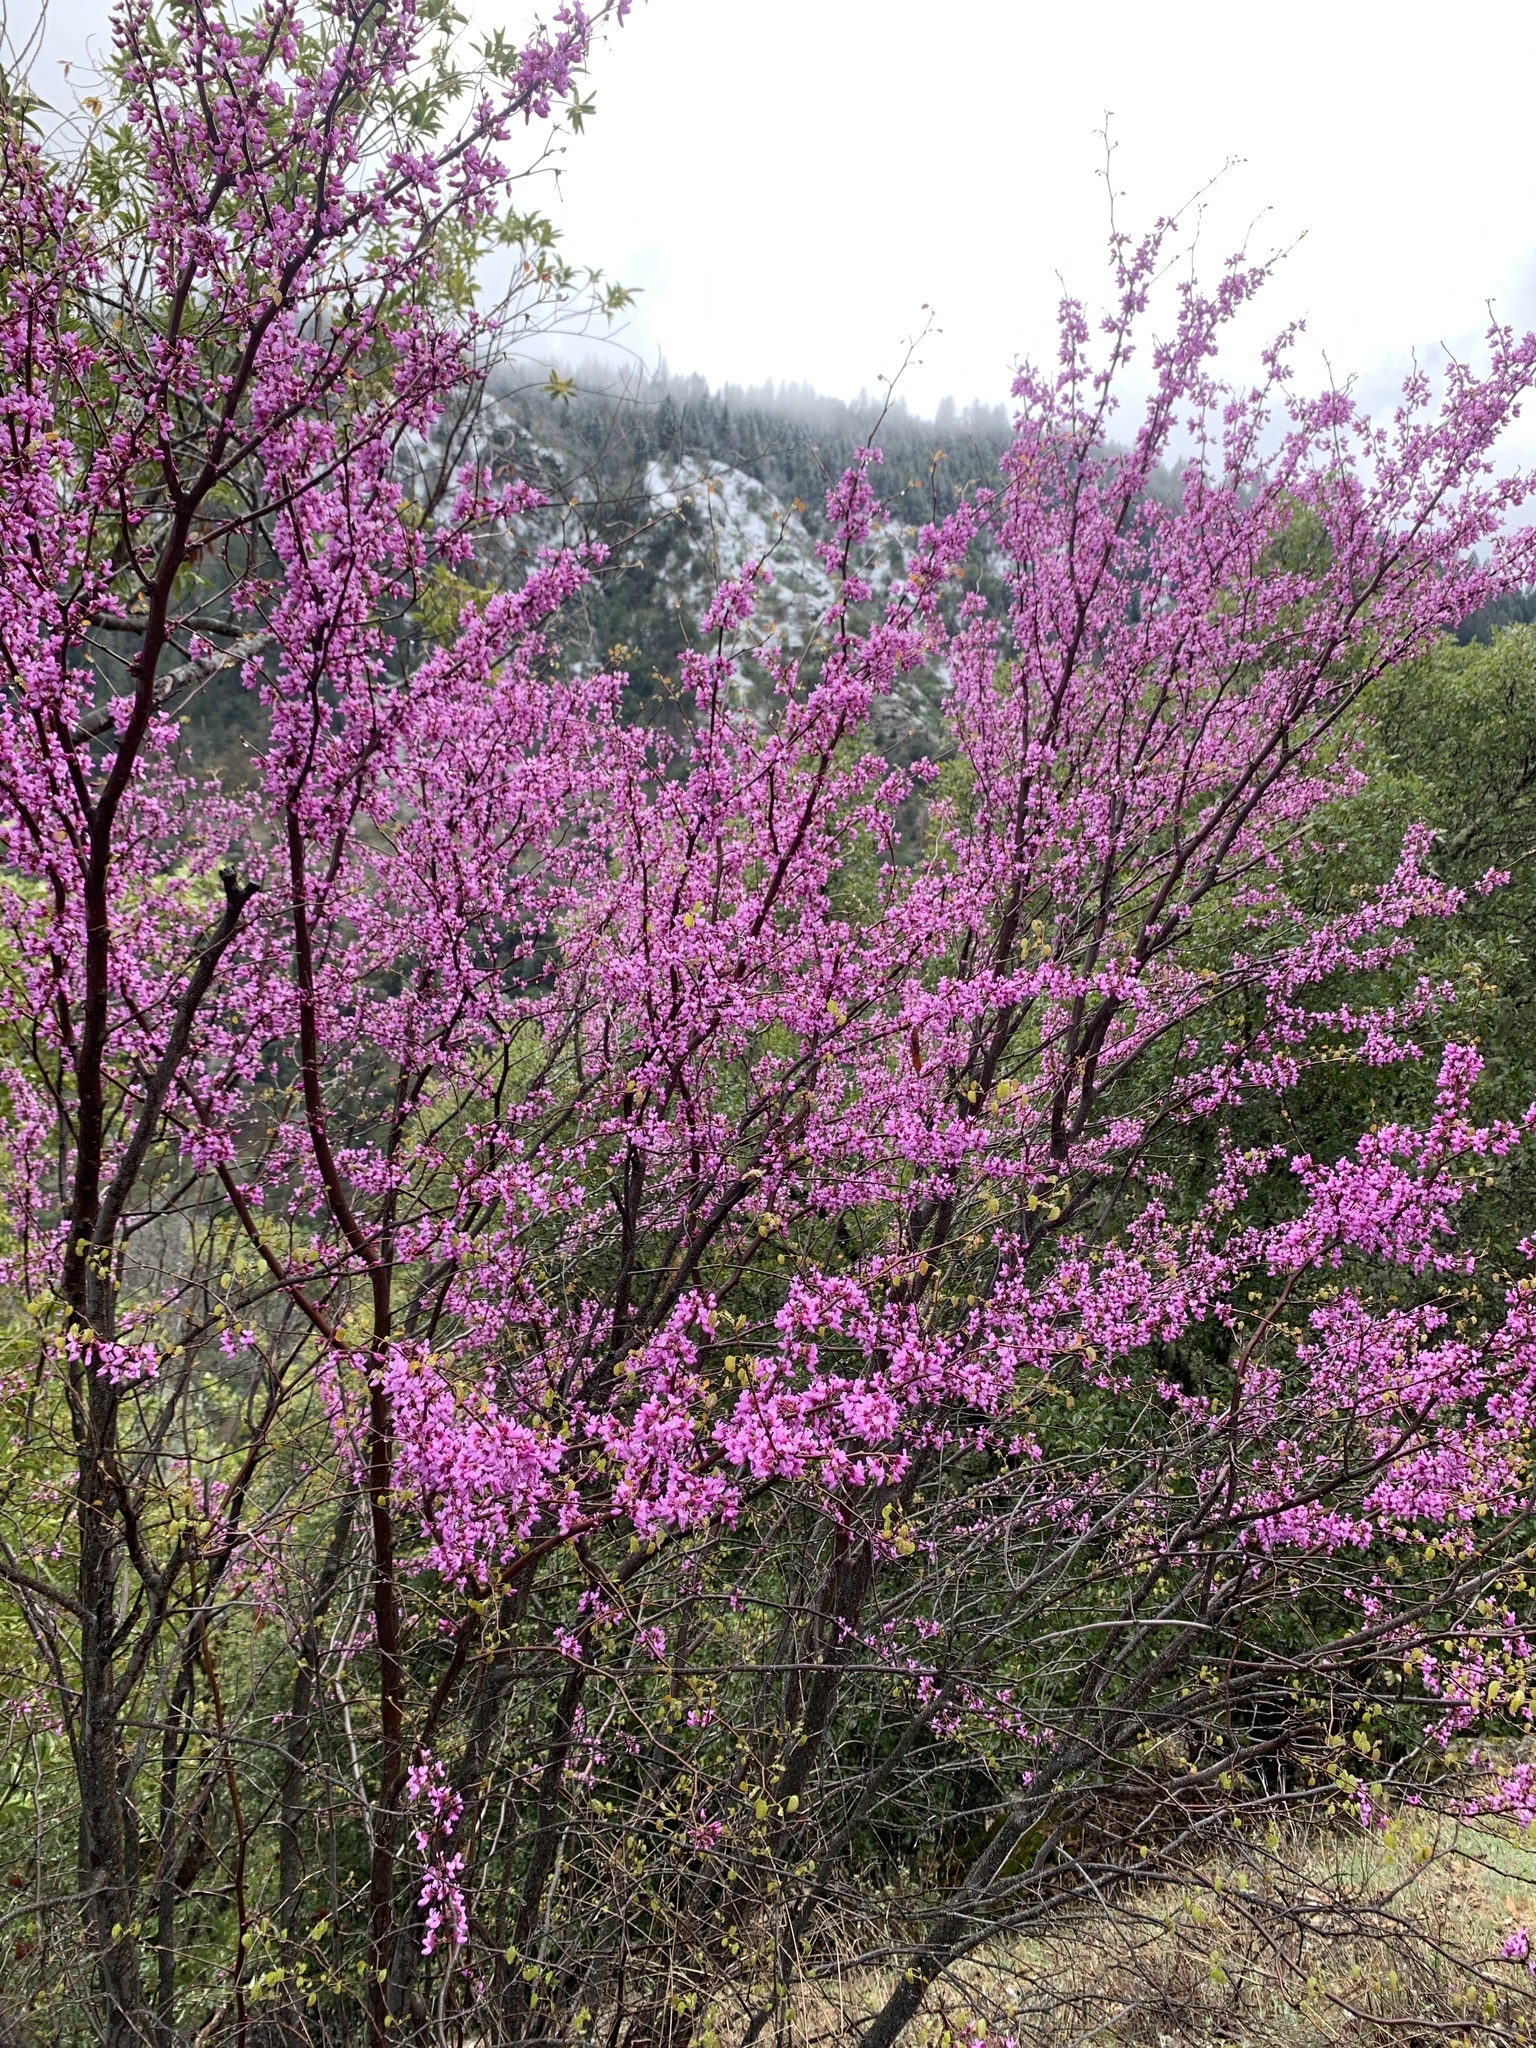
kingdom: Plantae
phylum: Tracheophyta
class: Magnoliopsida
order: Fabales
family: Fabaceae
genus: Cercis
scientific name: Cercis occidentalis
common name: California redbud
